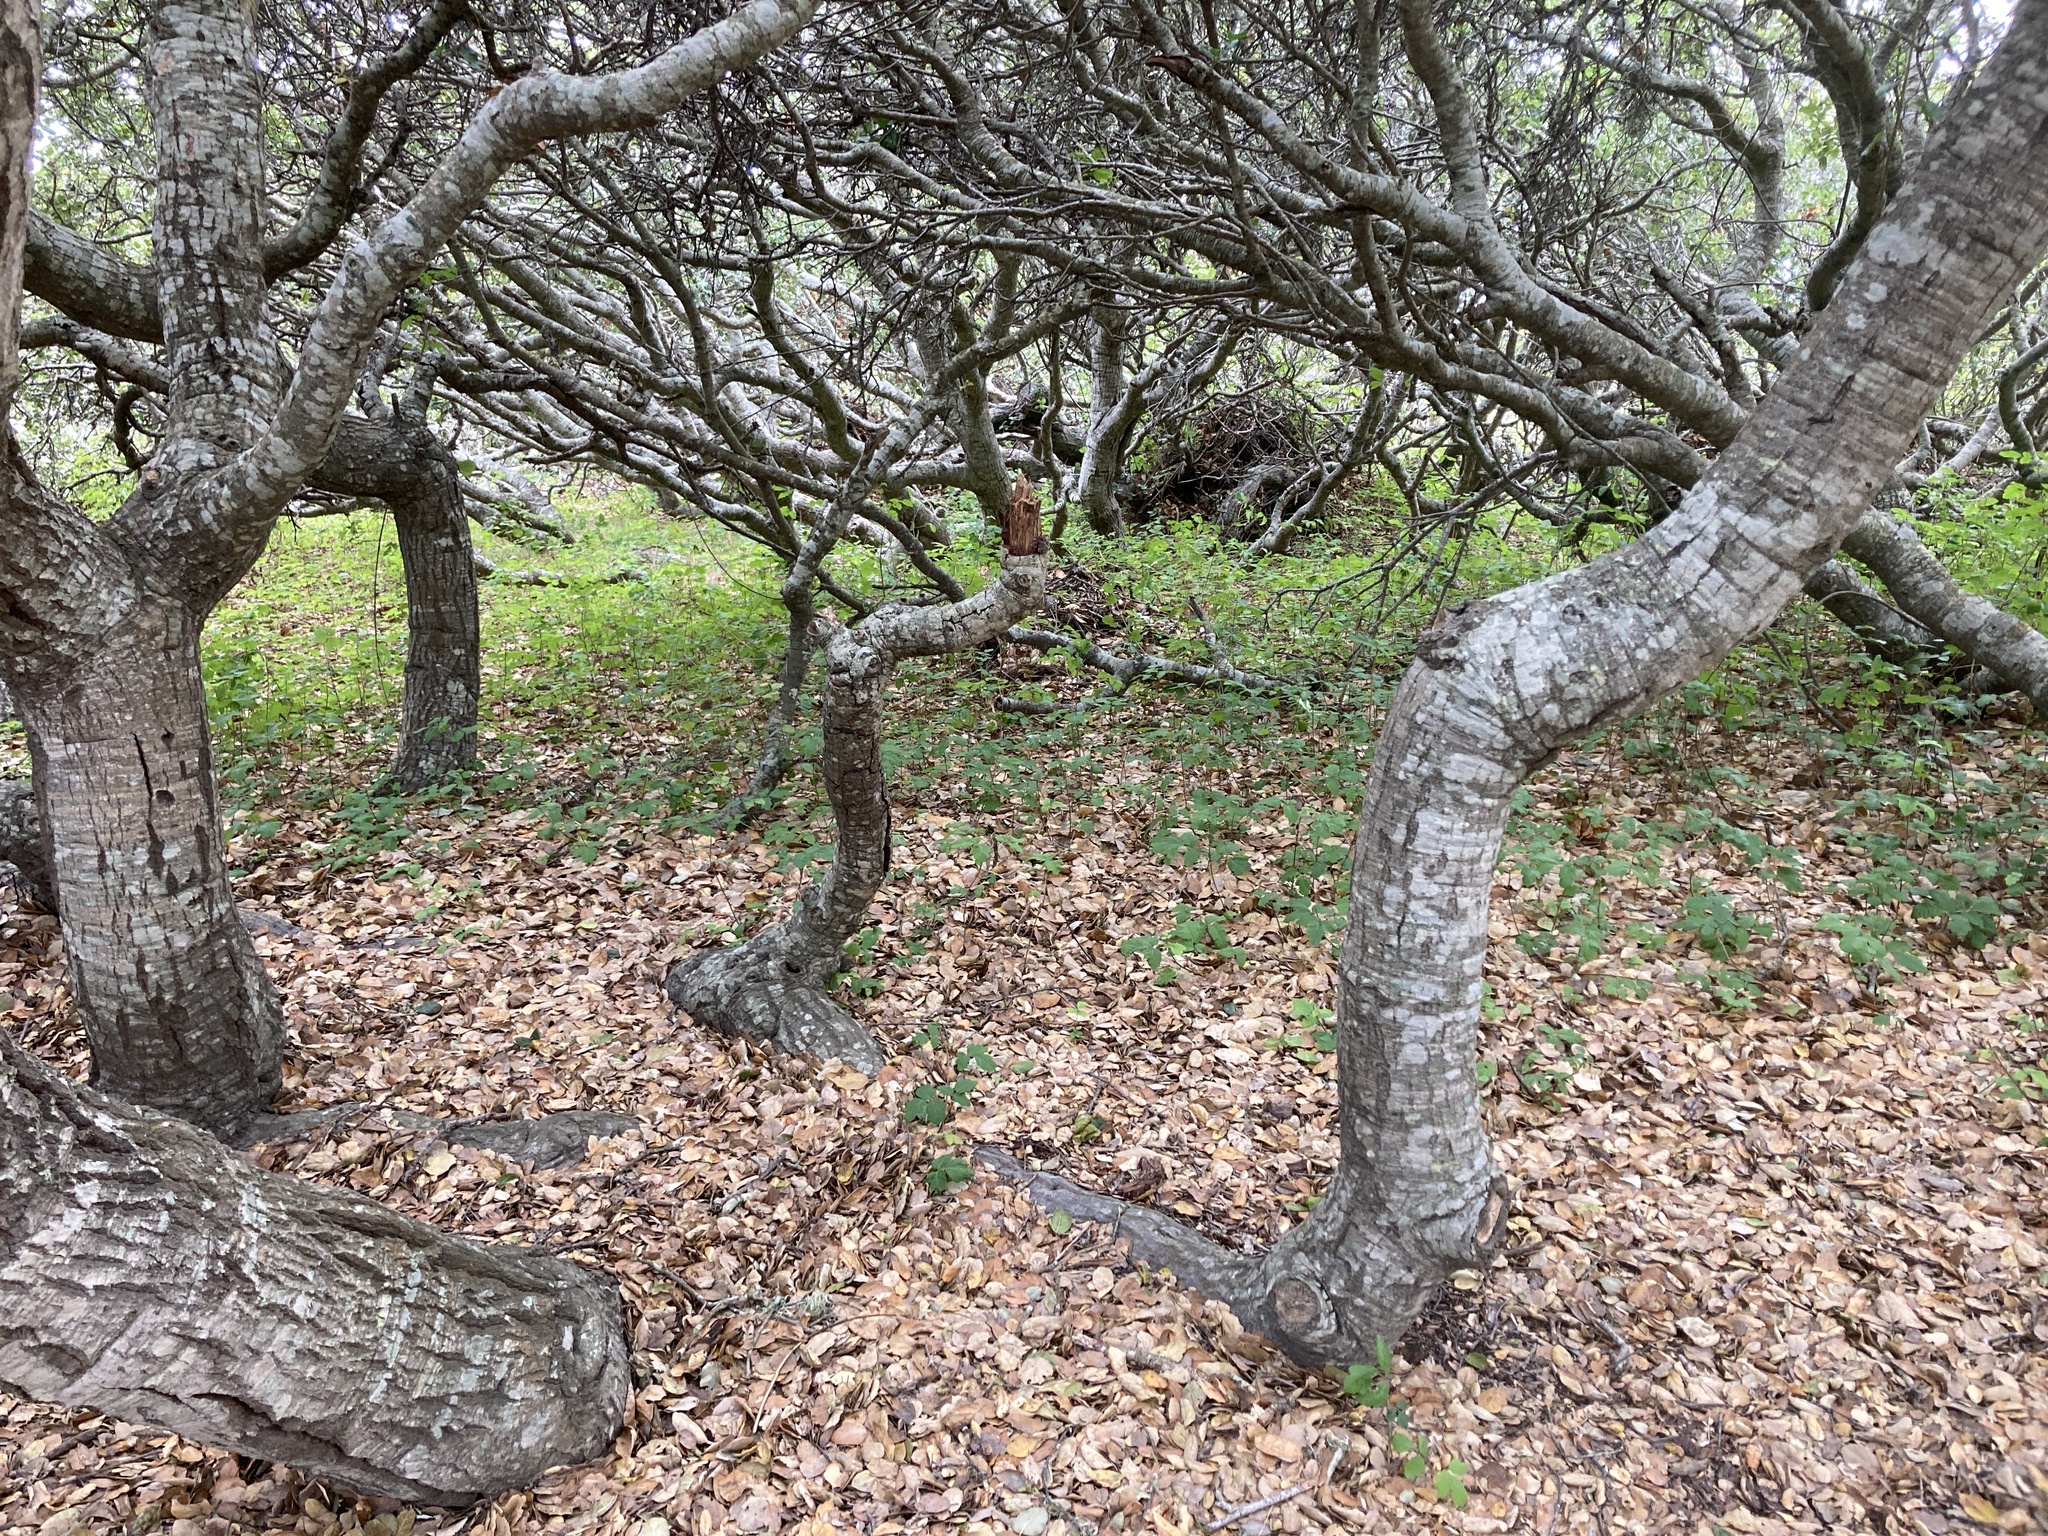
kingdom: Plantae
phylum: Tracheophyta
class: Magnoliopsida
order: Fagales
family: Fagaceae
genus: Quercus
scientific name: Quercus agrifolia
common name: California live oak
